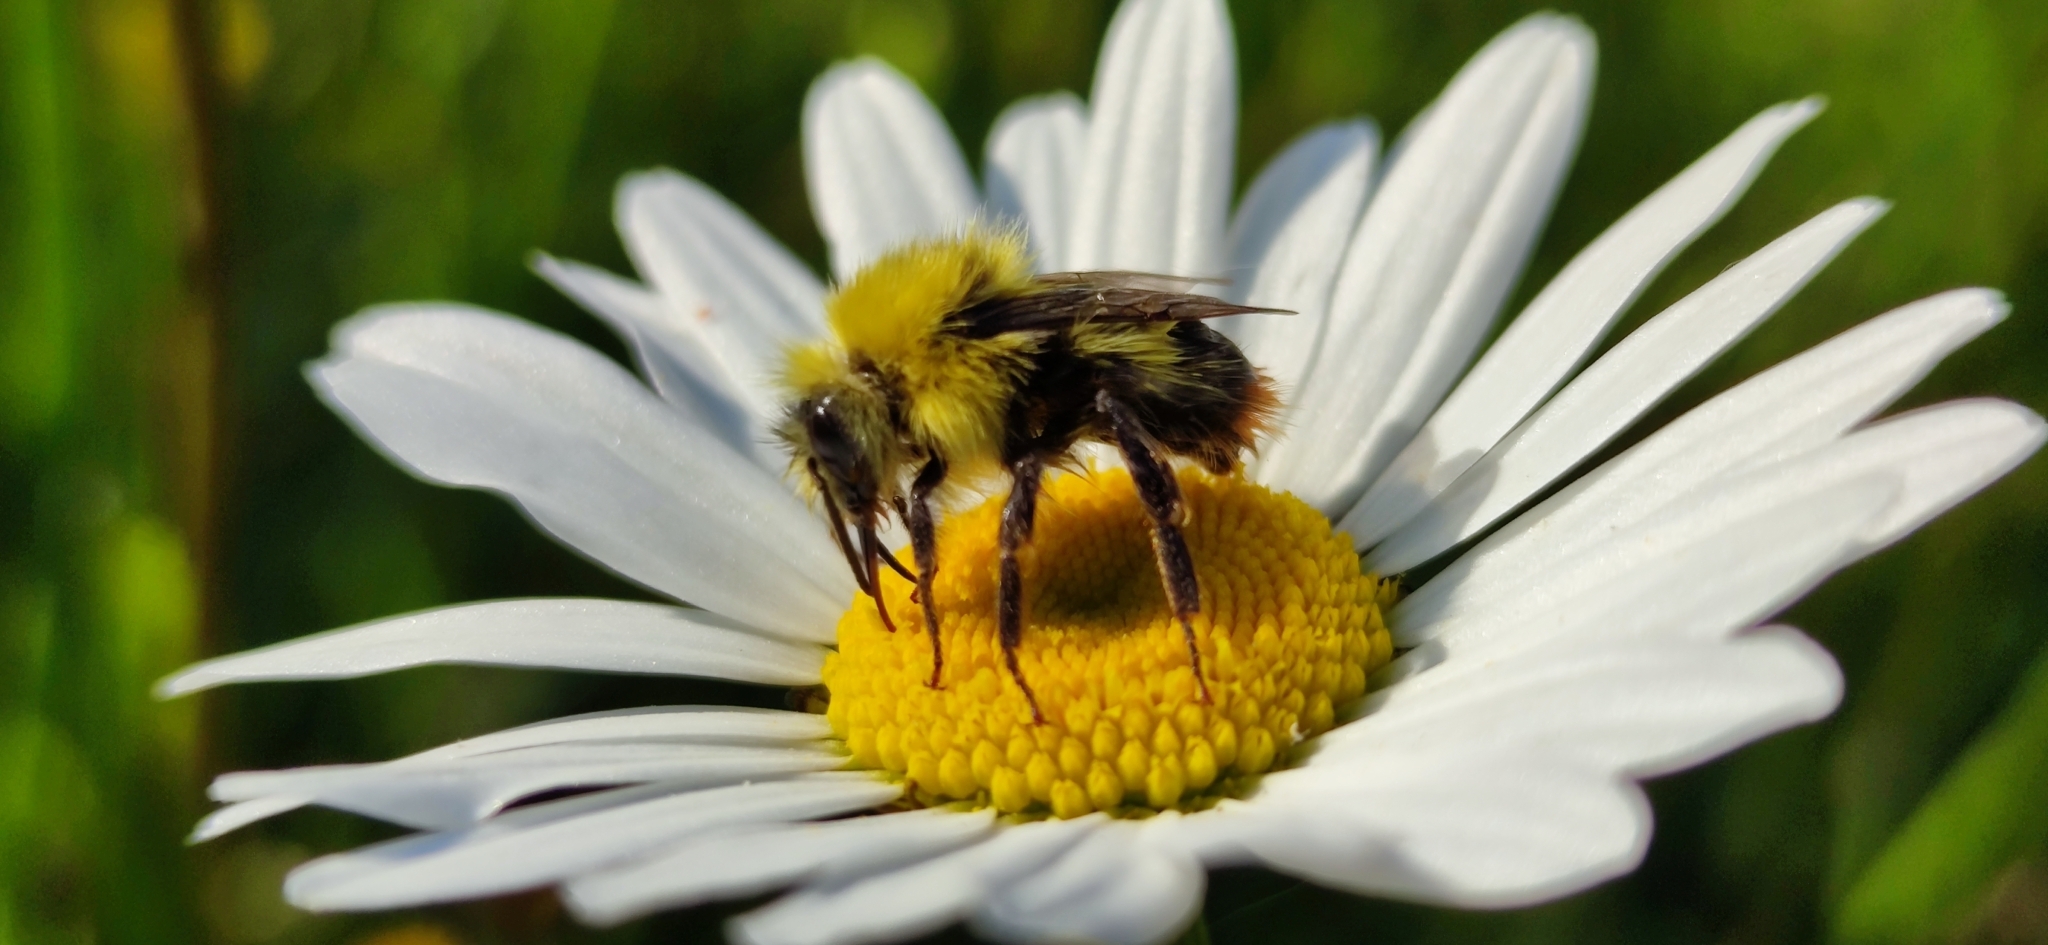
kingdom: Animalia
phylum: Arthropoda
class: Insecta
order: Hymenoptera
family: Apidae
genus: Bombus
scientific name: Bombus pratorum
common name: Early humble-bee
